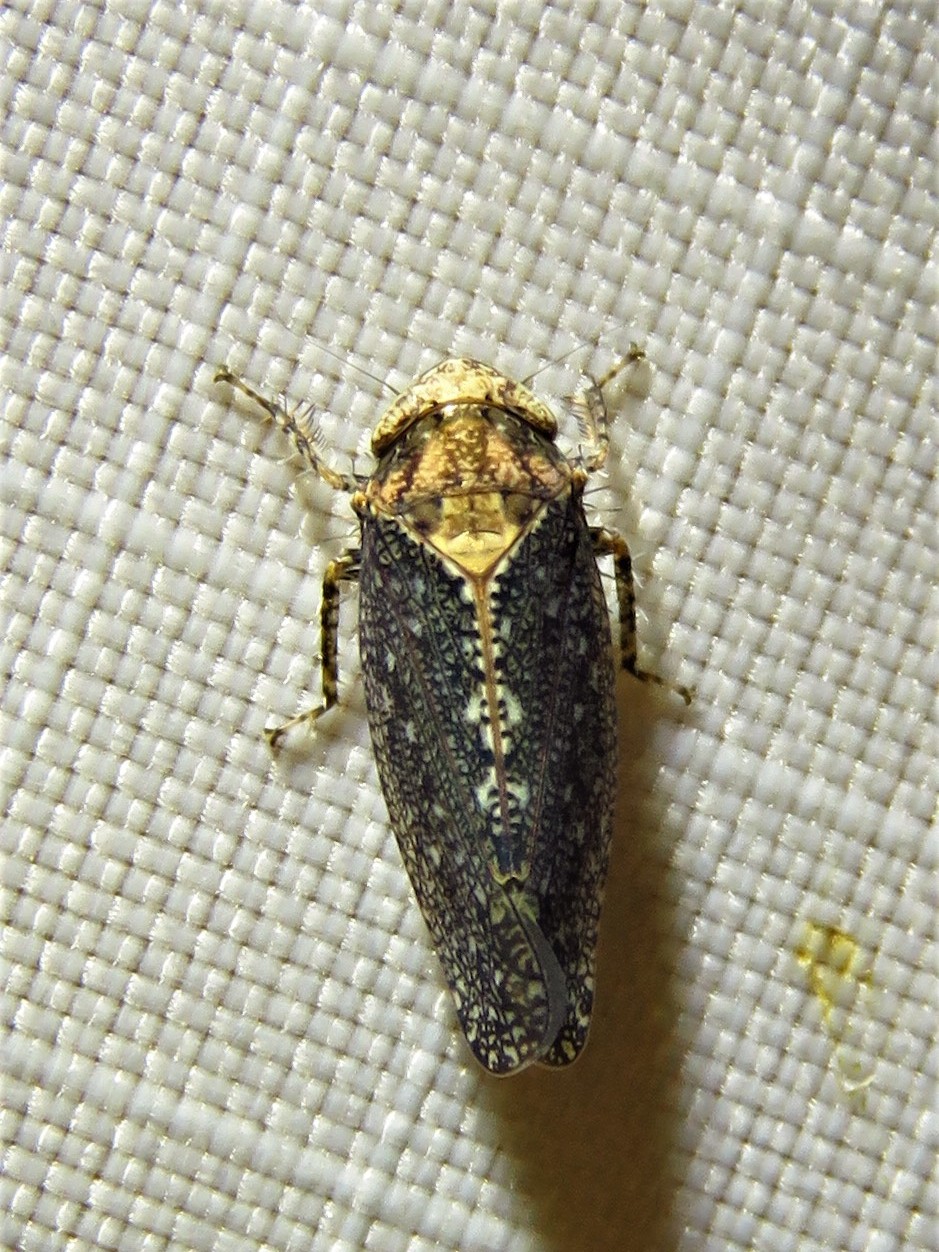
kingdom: Animalia
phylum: Arthropoda
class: Insecta
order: Hemiptera
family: Cicadellidae
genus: Excultanus
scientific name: Excultanus excultus
